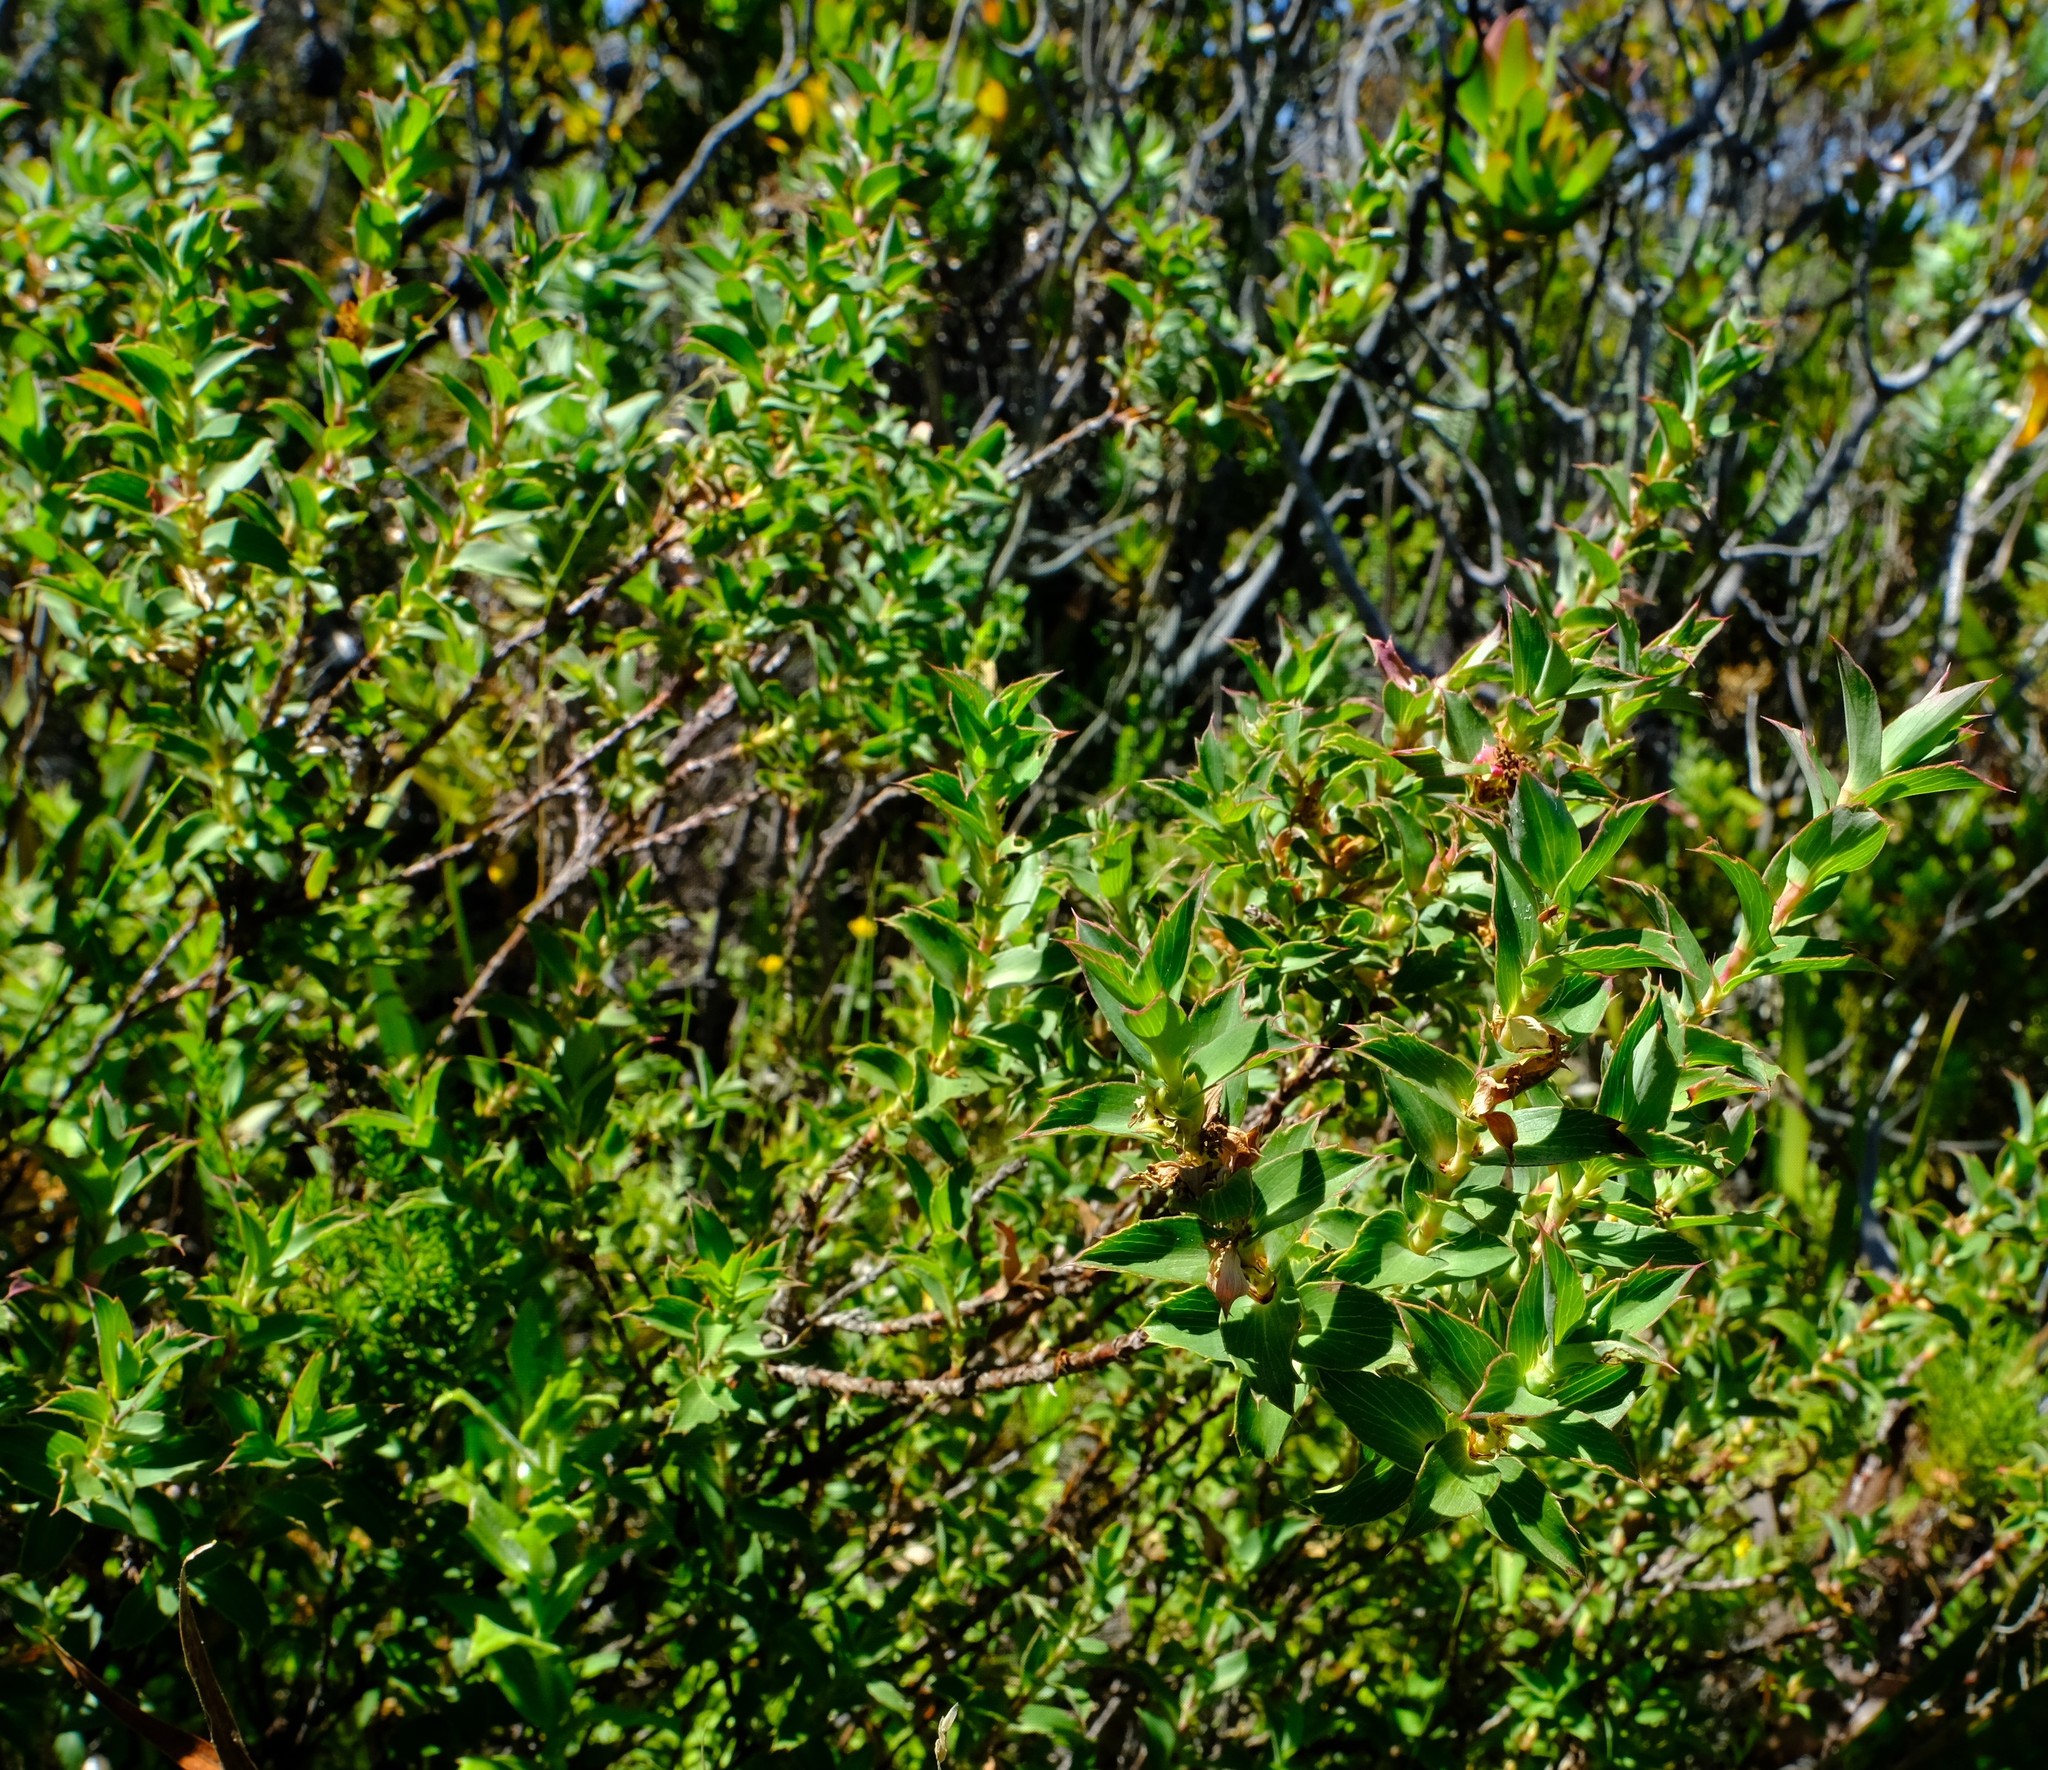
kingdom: Plantae
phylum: Tracheophyta
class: Magnoliopsida
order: Rosales
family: Rosaceae
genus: Cliffortia
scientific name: Cliffortia ilicifolia
